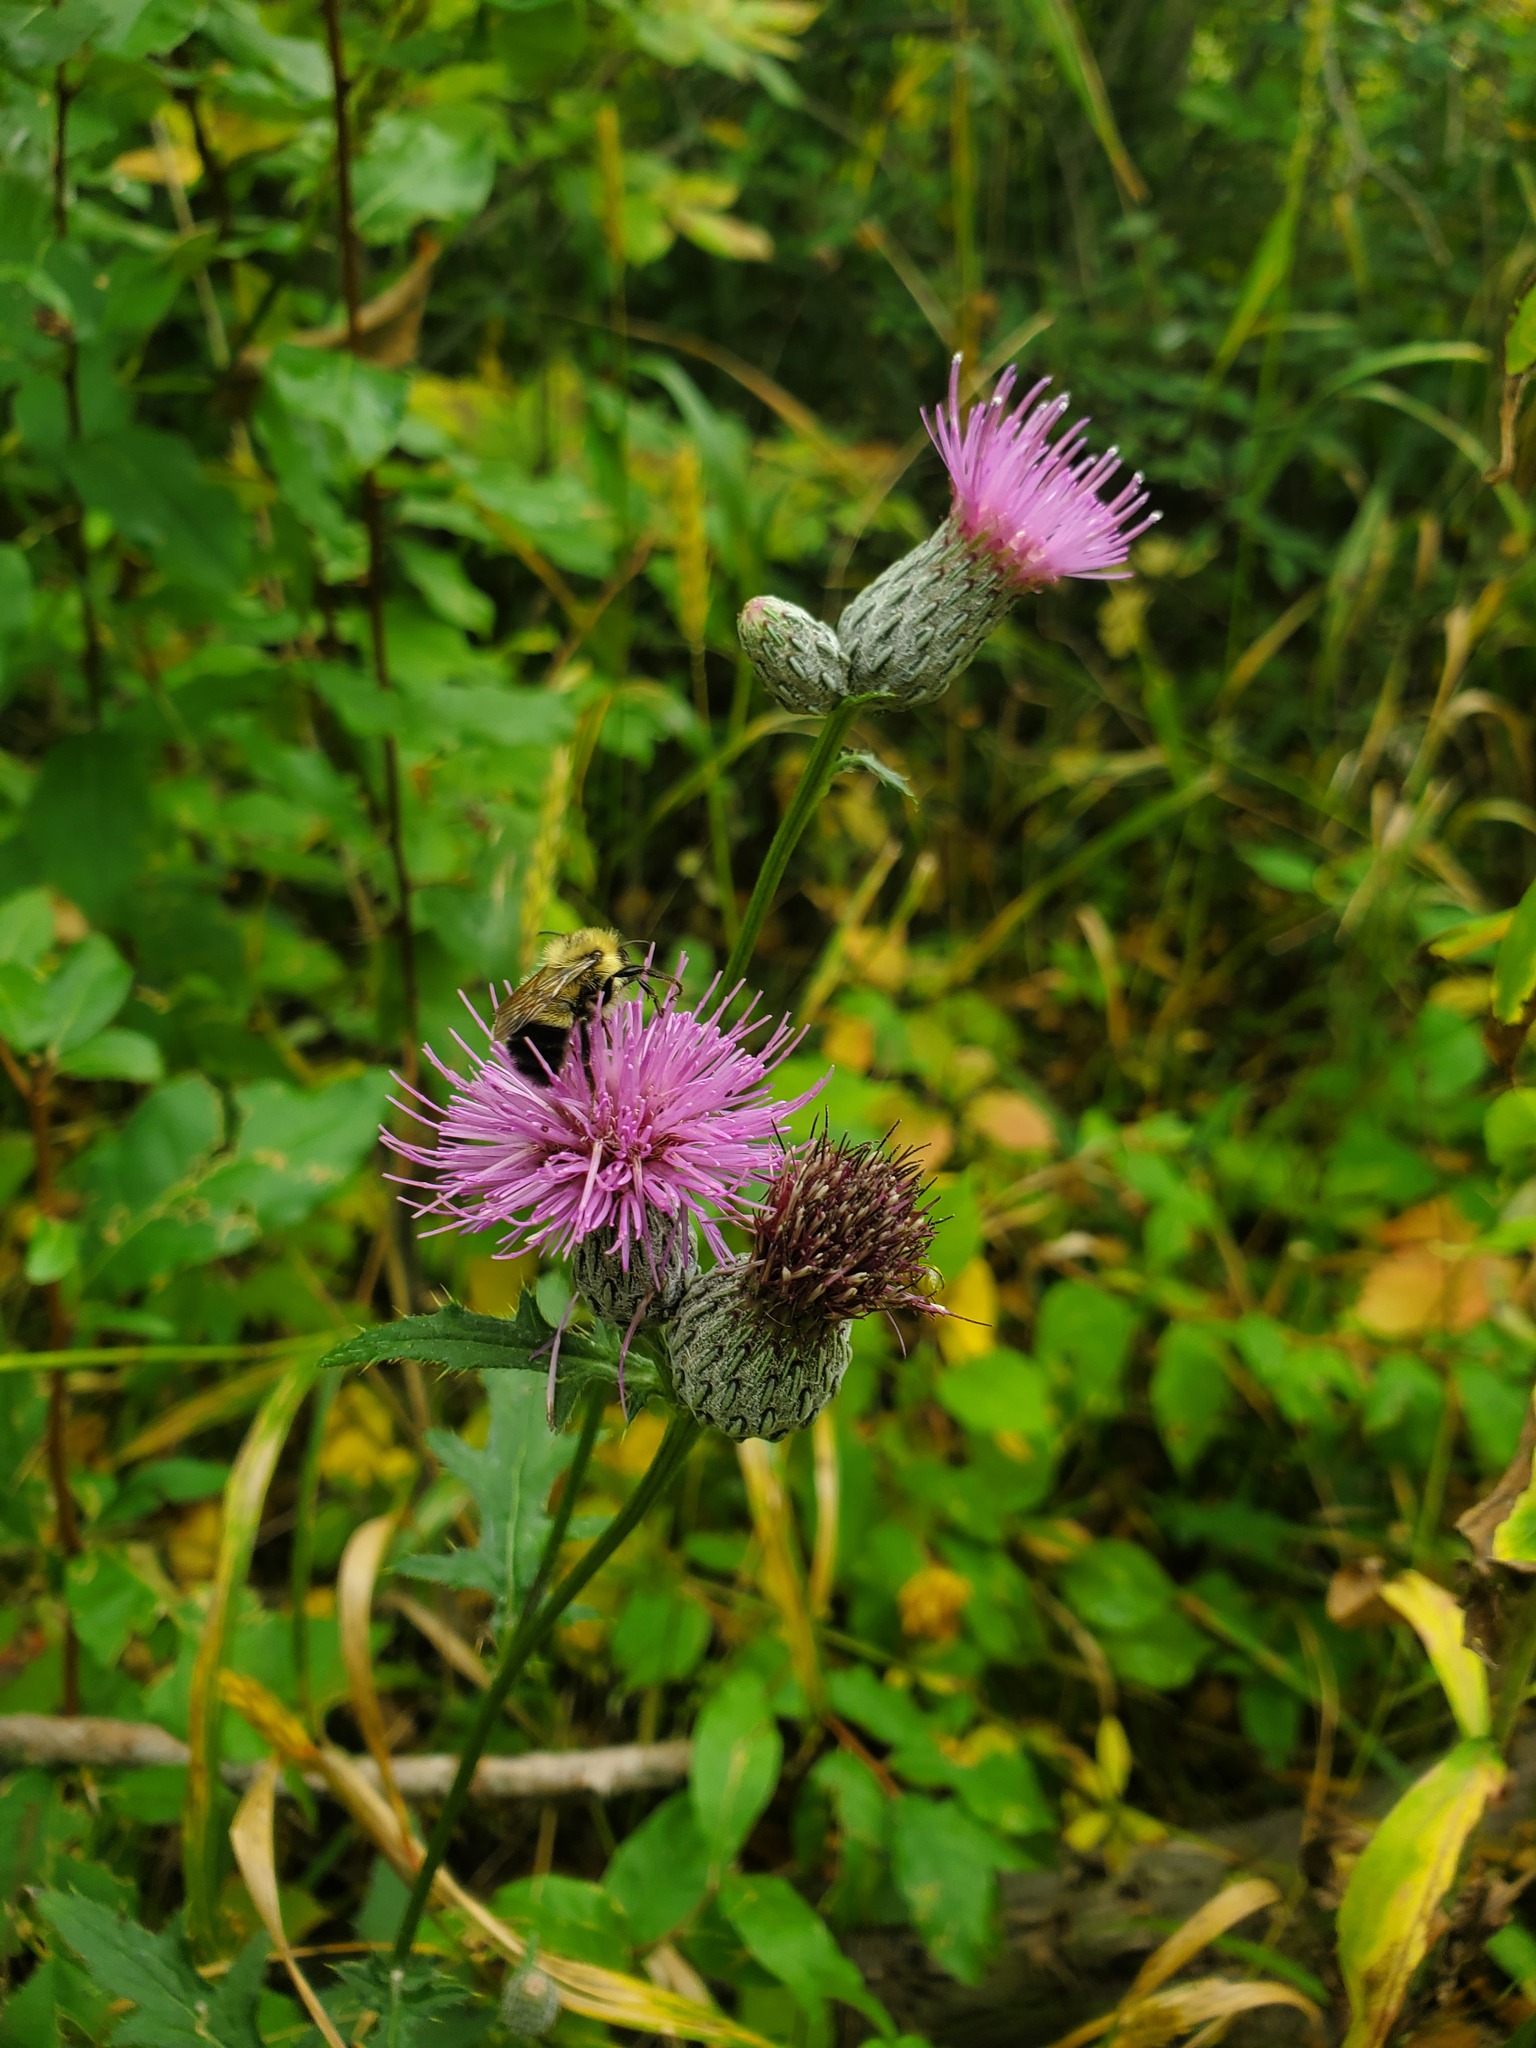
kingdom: Plantae
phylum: Tracheophyta
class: Magnoliopsida
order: Asterales
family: Asteraceae
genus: Cirsium
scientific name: Cirsium muticum
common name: Dunce-nettle
